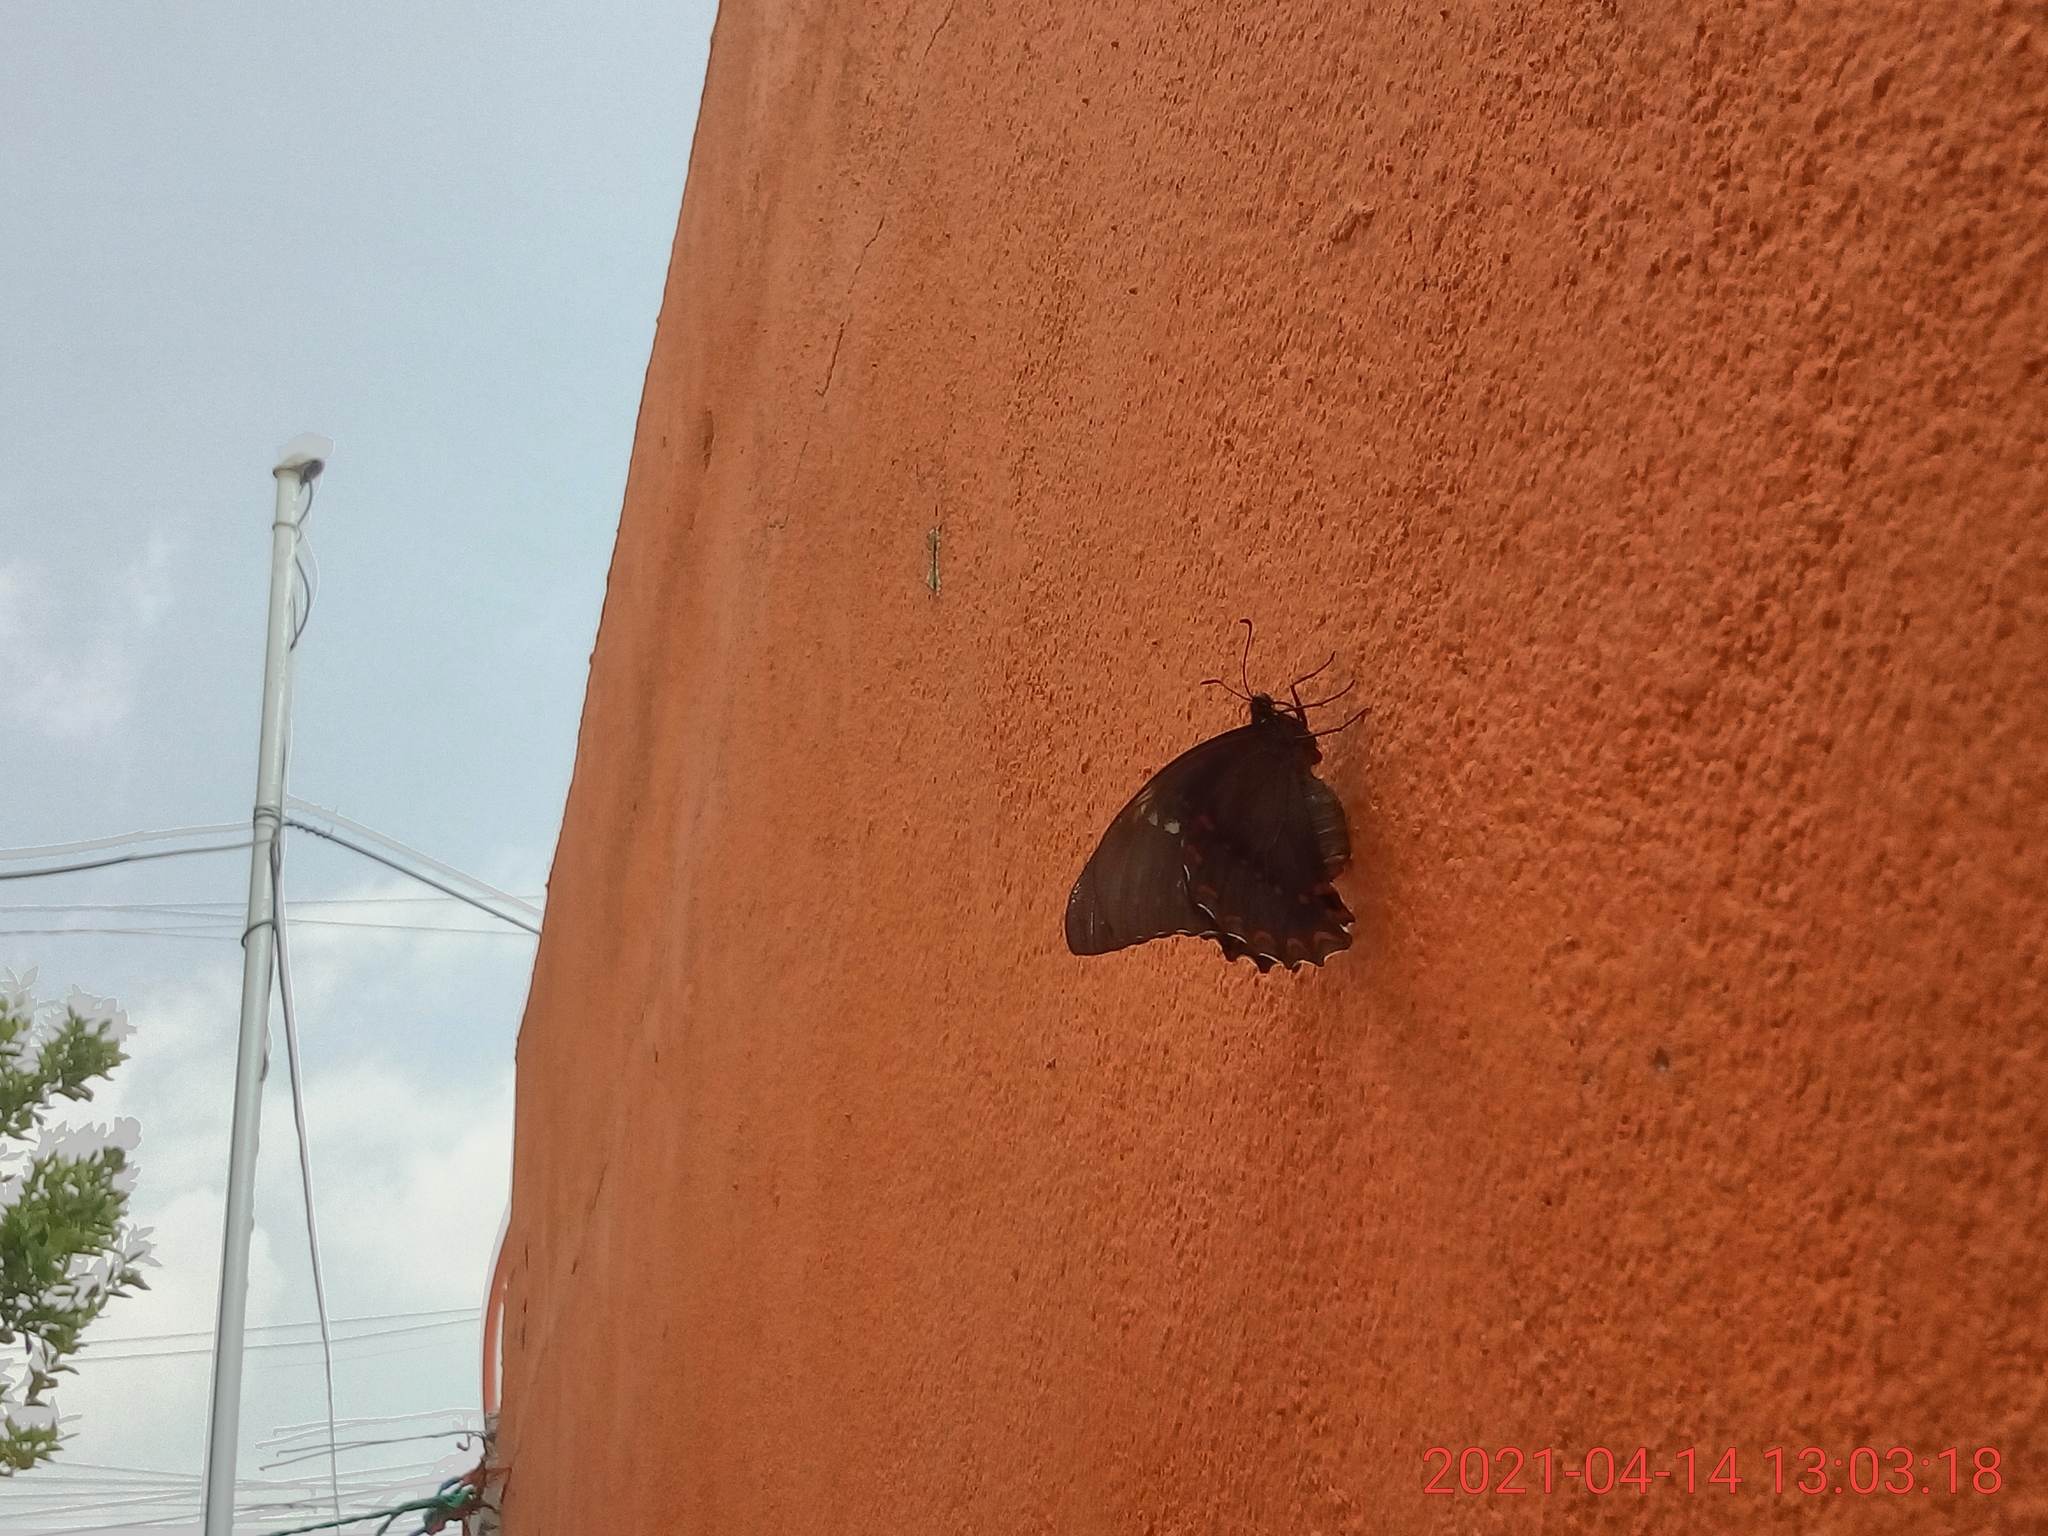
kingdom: Animalia
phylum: Arthropoda
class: Insecta
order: Lepidoptera
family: Papilionidae
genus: Papilio
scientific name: Papilio menatius
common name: Victorine swallowtail
